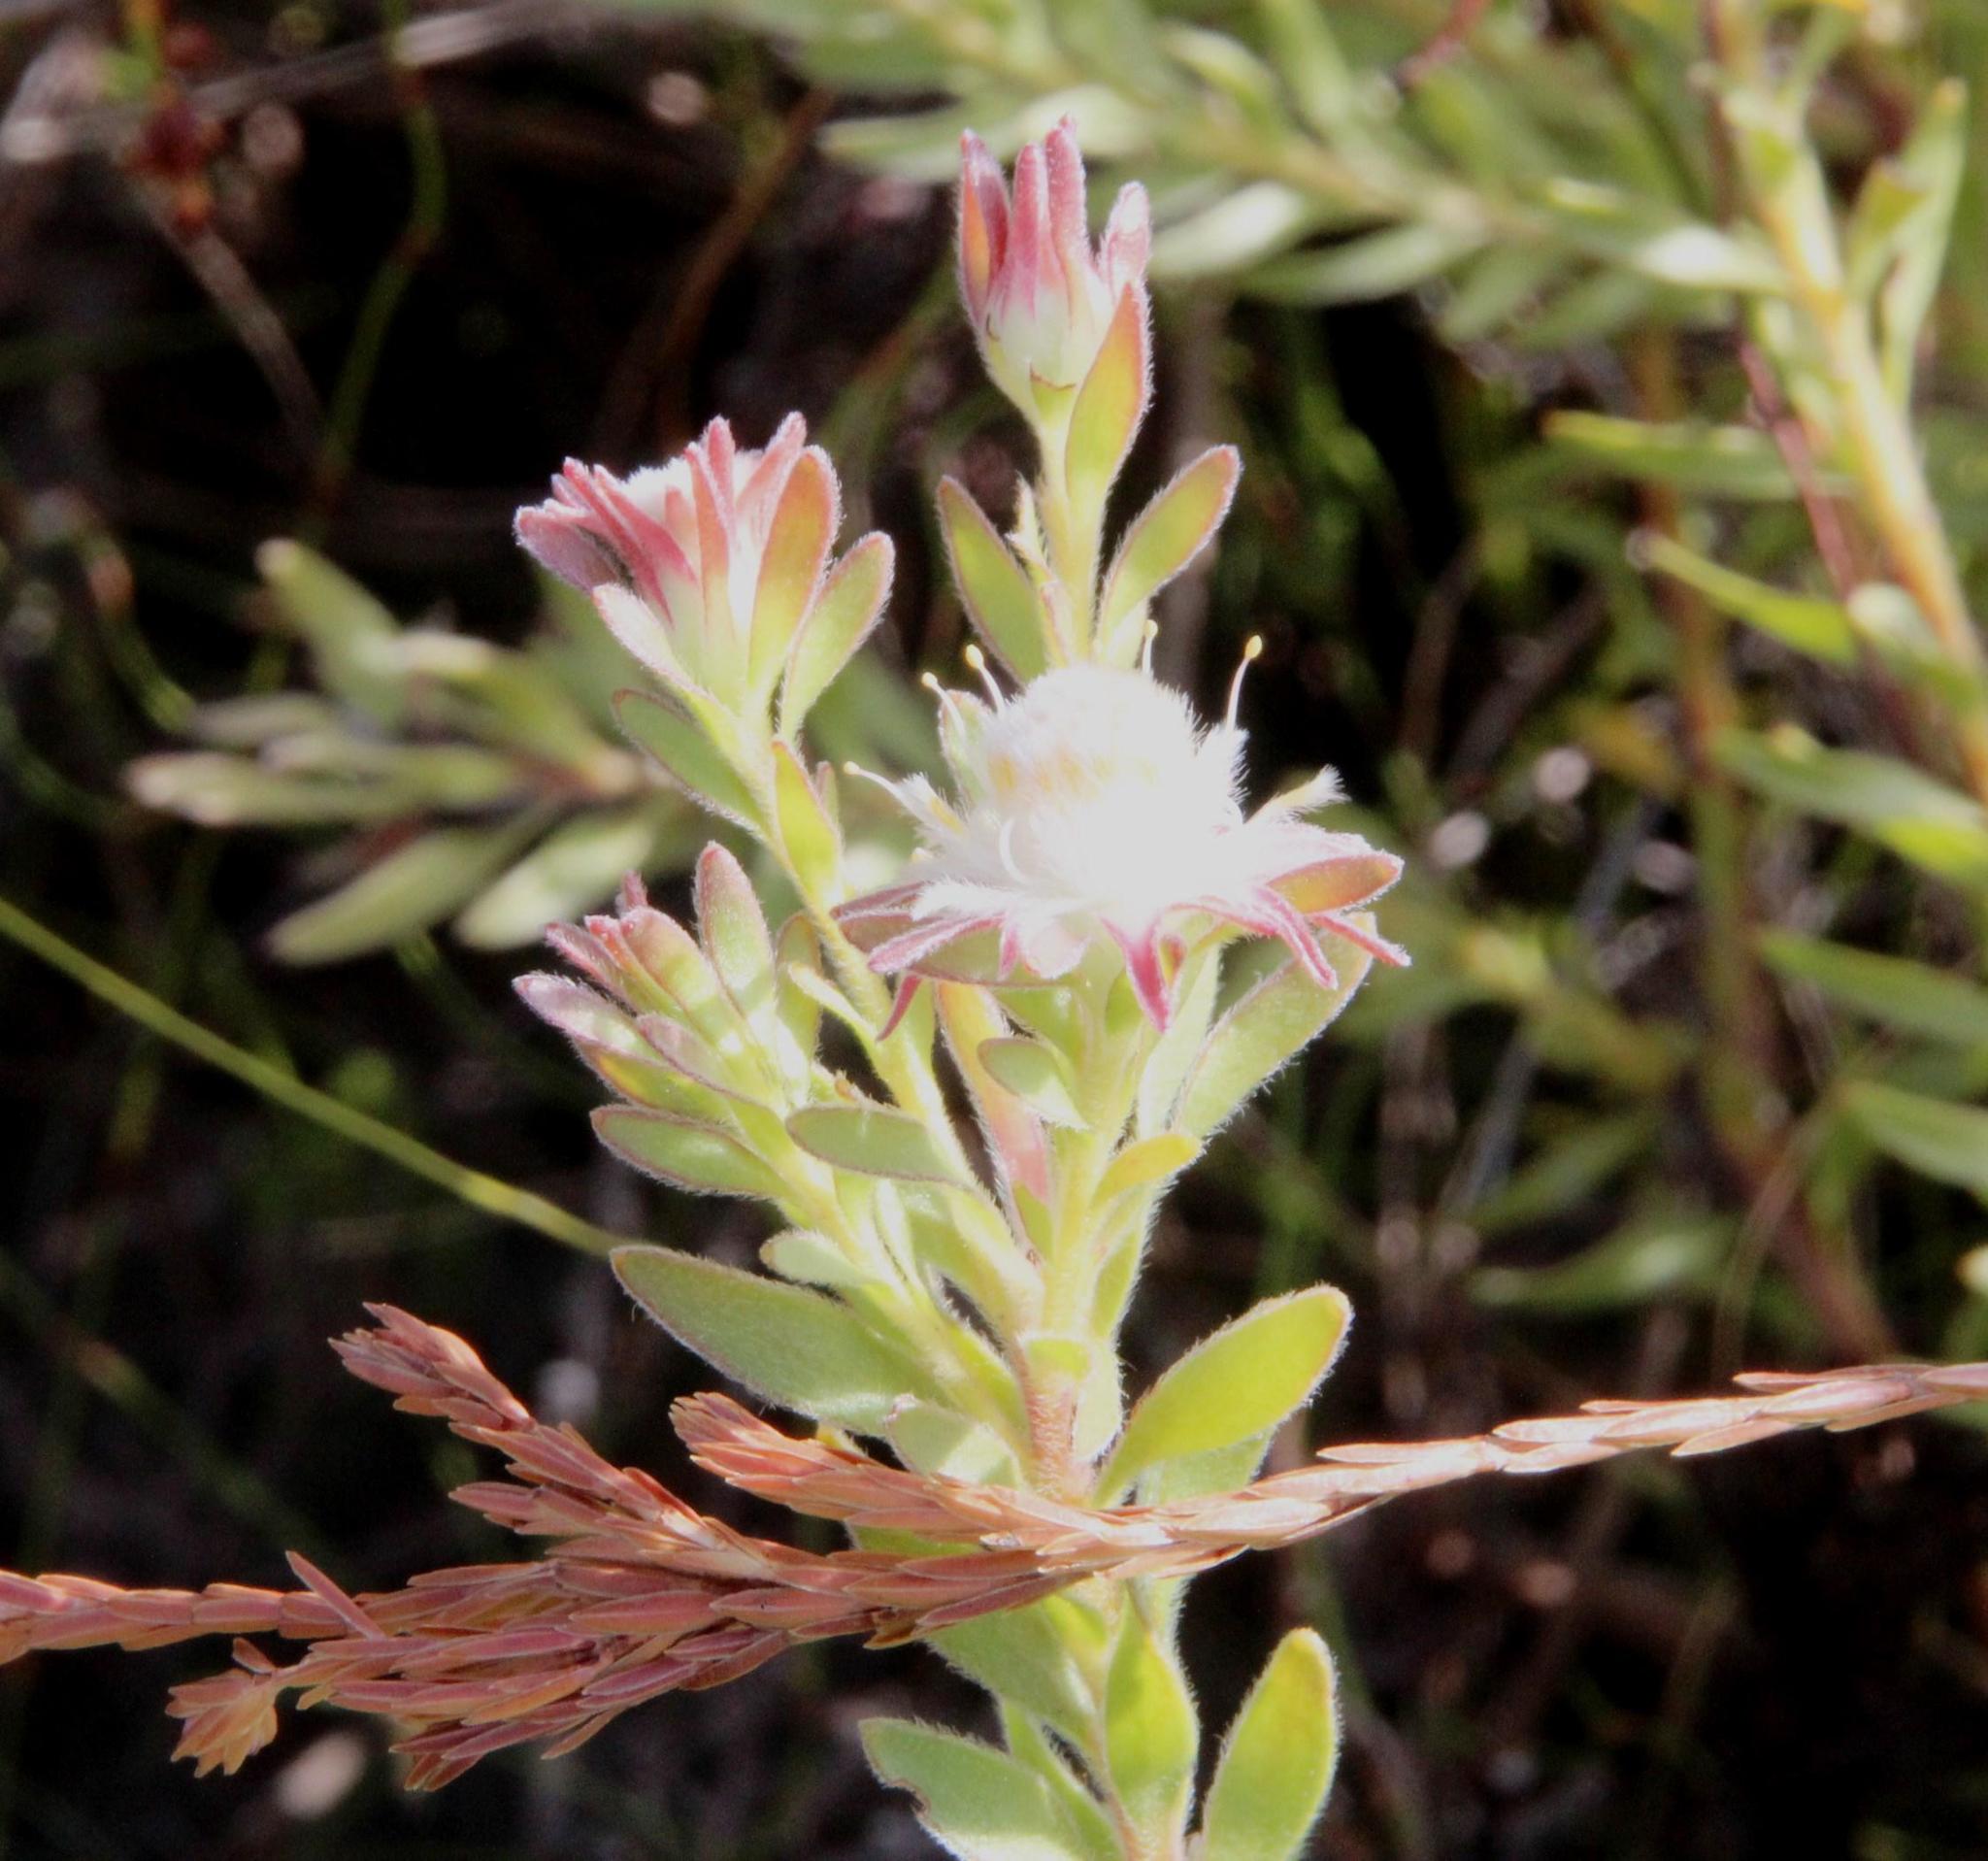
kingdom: Plantae
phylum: Tracheophyta
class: Magnoliopsida
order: Proteales
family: Proteaceae
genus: Diastella
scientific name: Diastella fraterna
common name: Palmiet silkypuff
